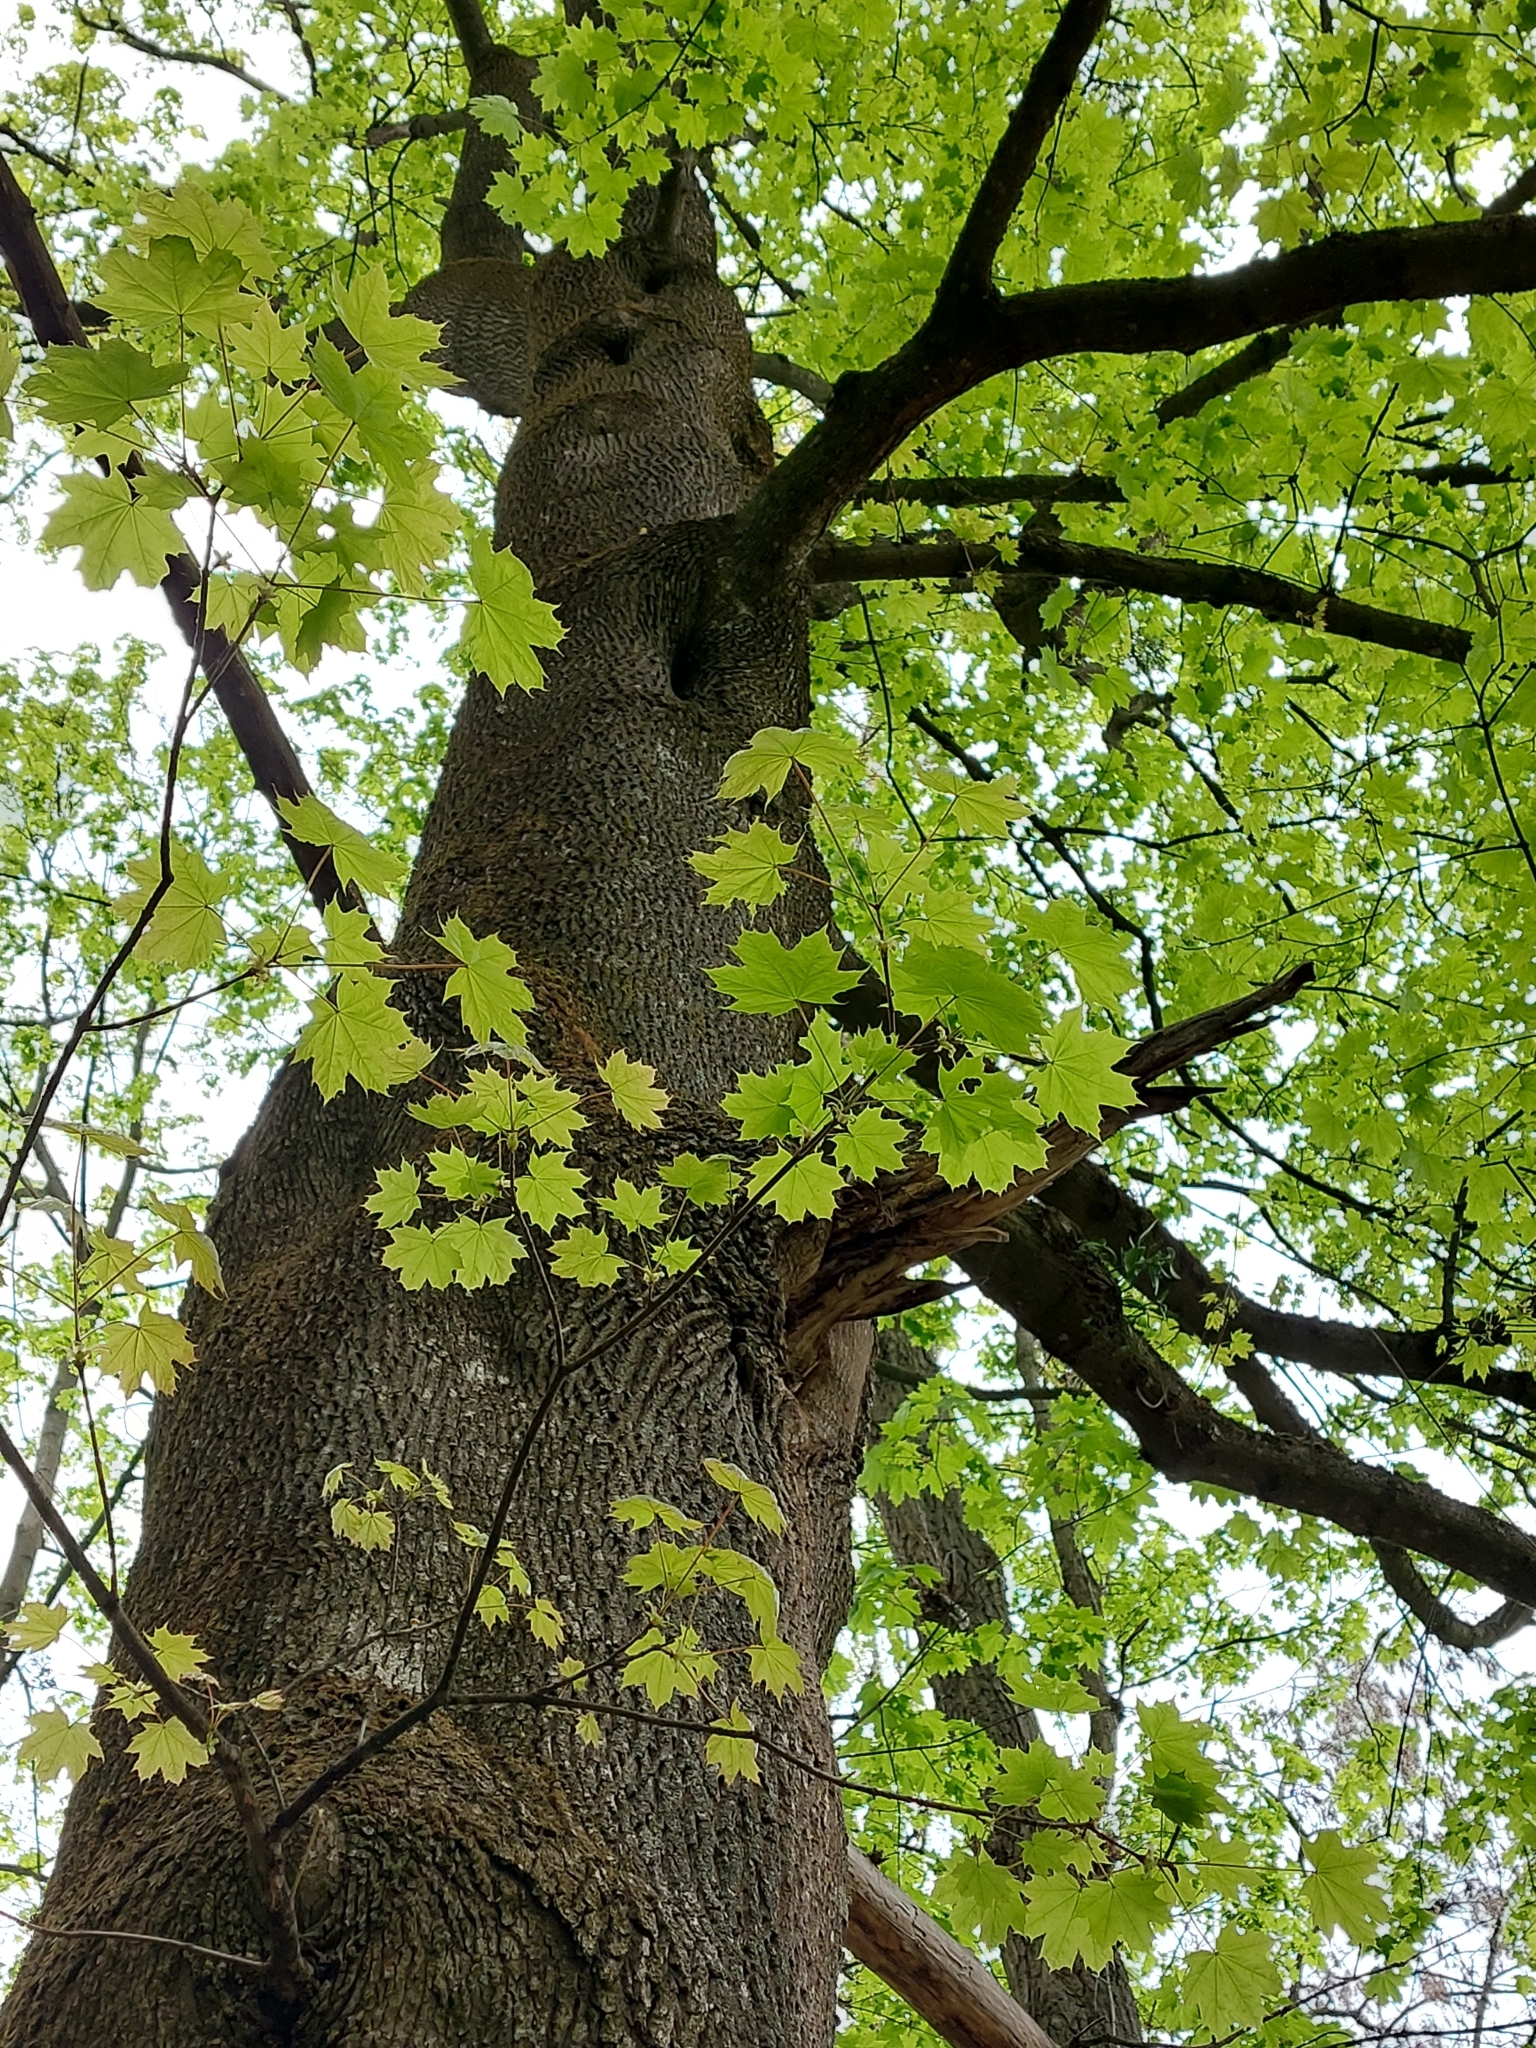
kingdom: Plantae
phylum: Tracheophyta
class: Magnoliopsida
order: Sapindales
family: Sapindaceae
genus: Acer
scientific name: Acer platanoides
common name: Norway maple
